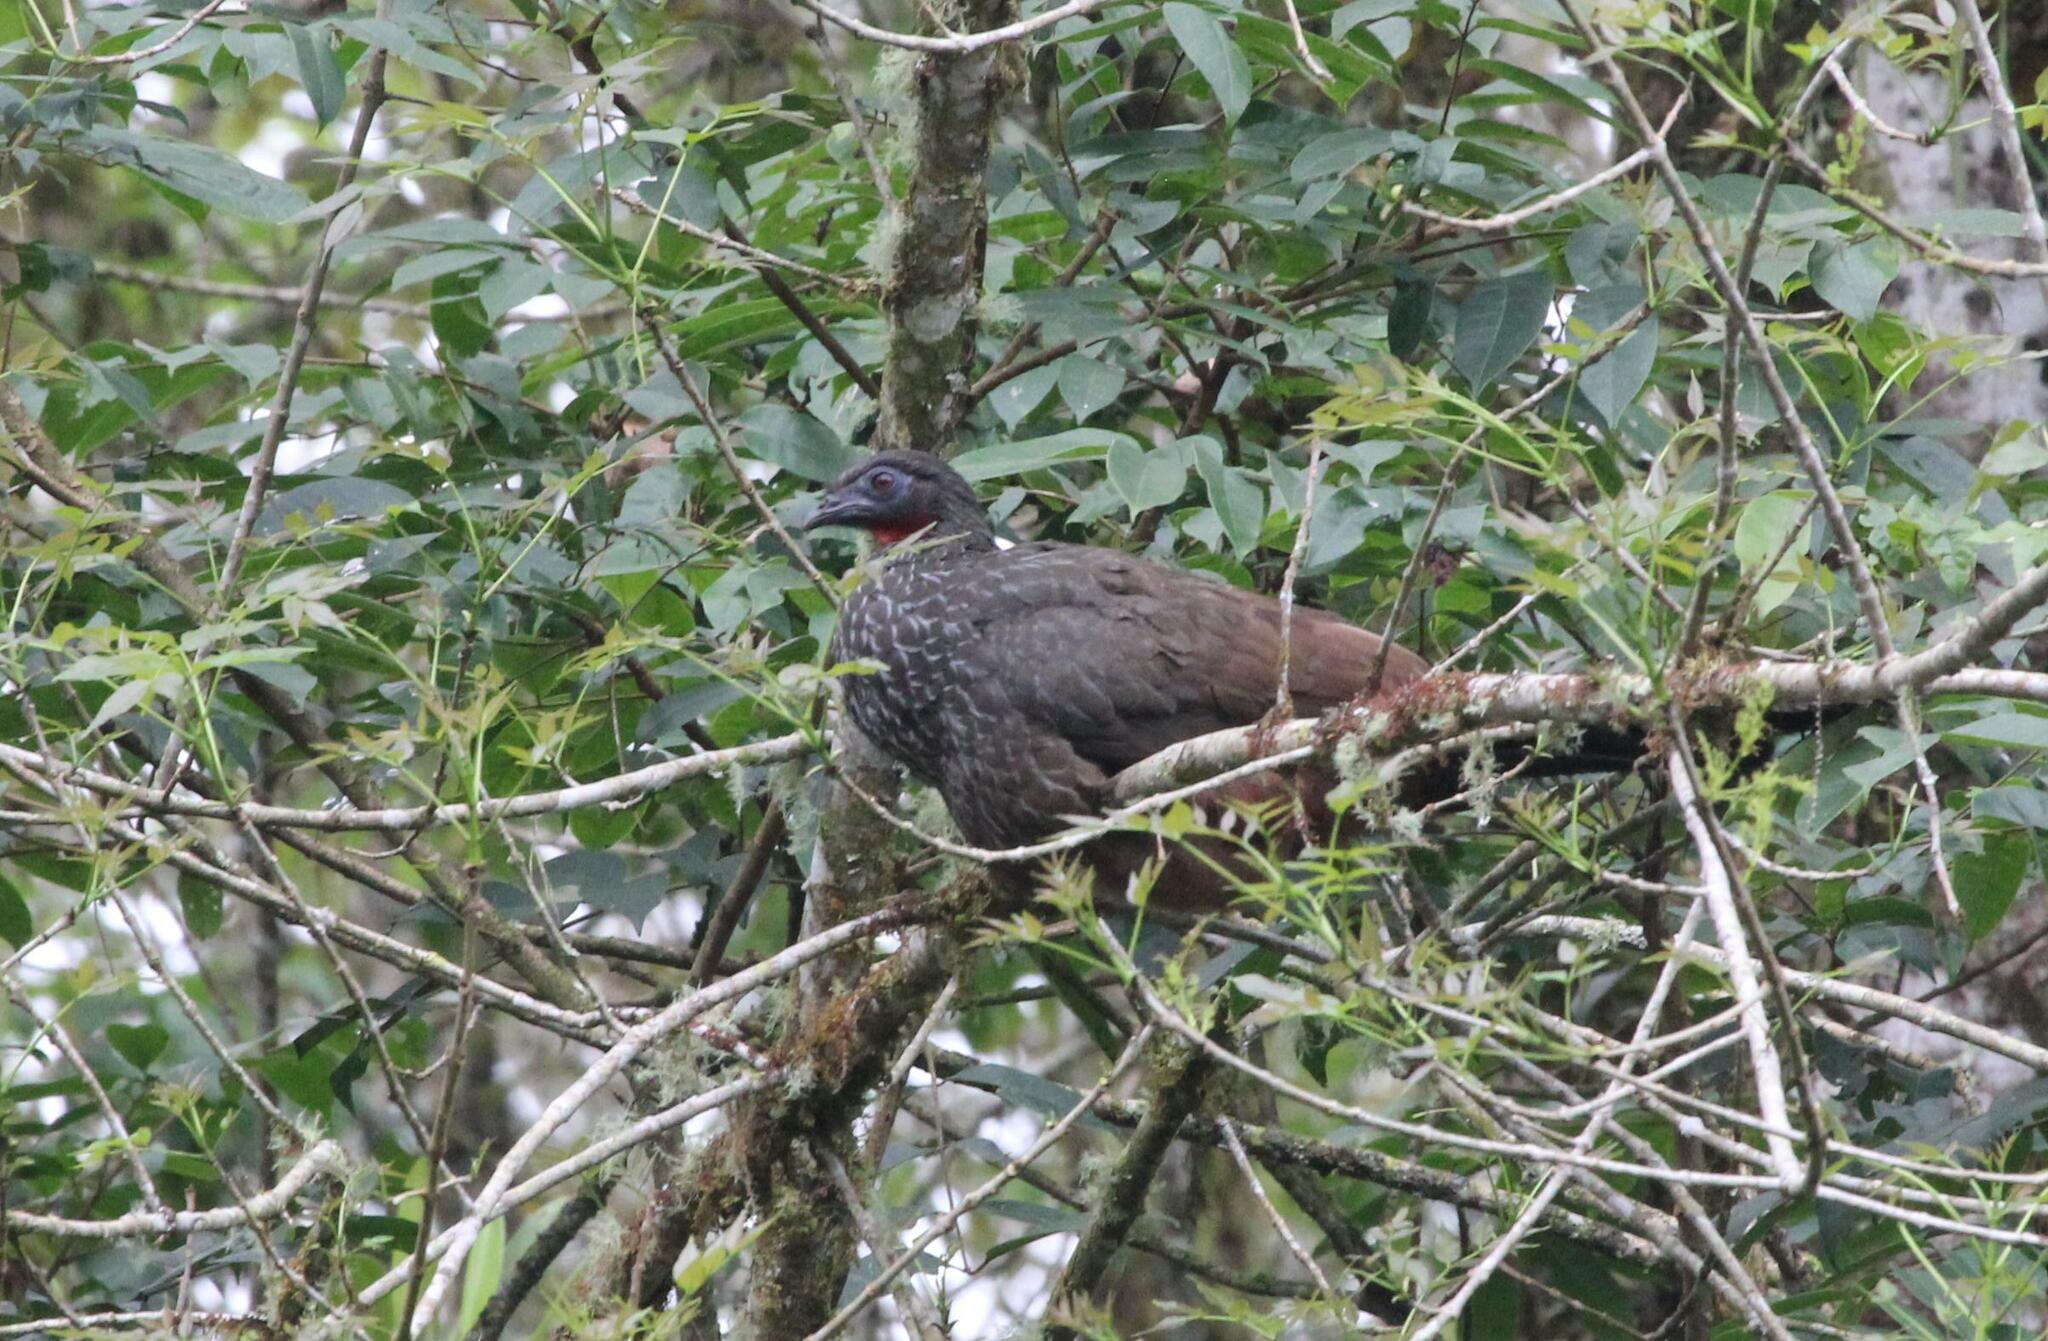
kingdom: Animalia
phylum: Chordata
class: Aves
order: Galliformes
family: Cracidae
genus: Penelope
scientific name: Penelope perspicax
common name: Cauca guan
